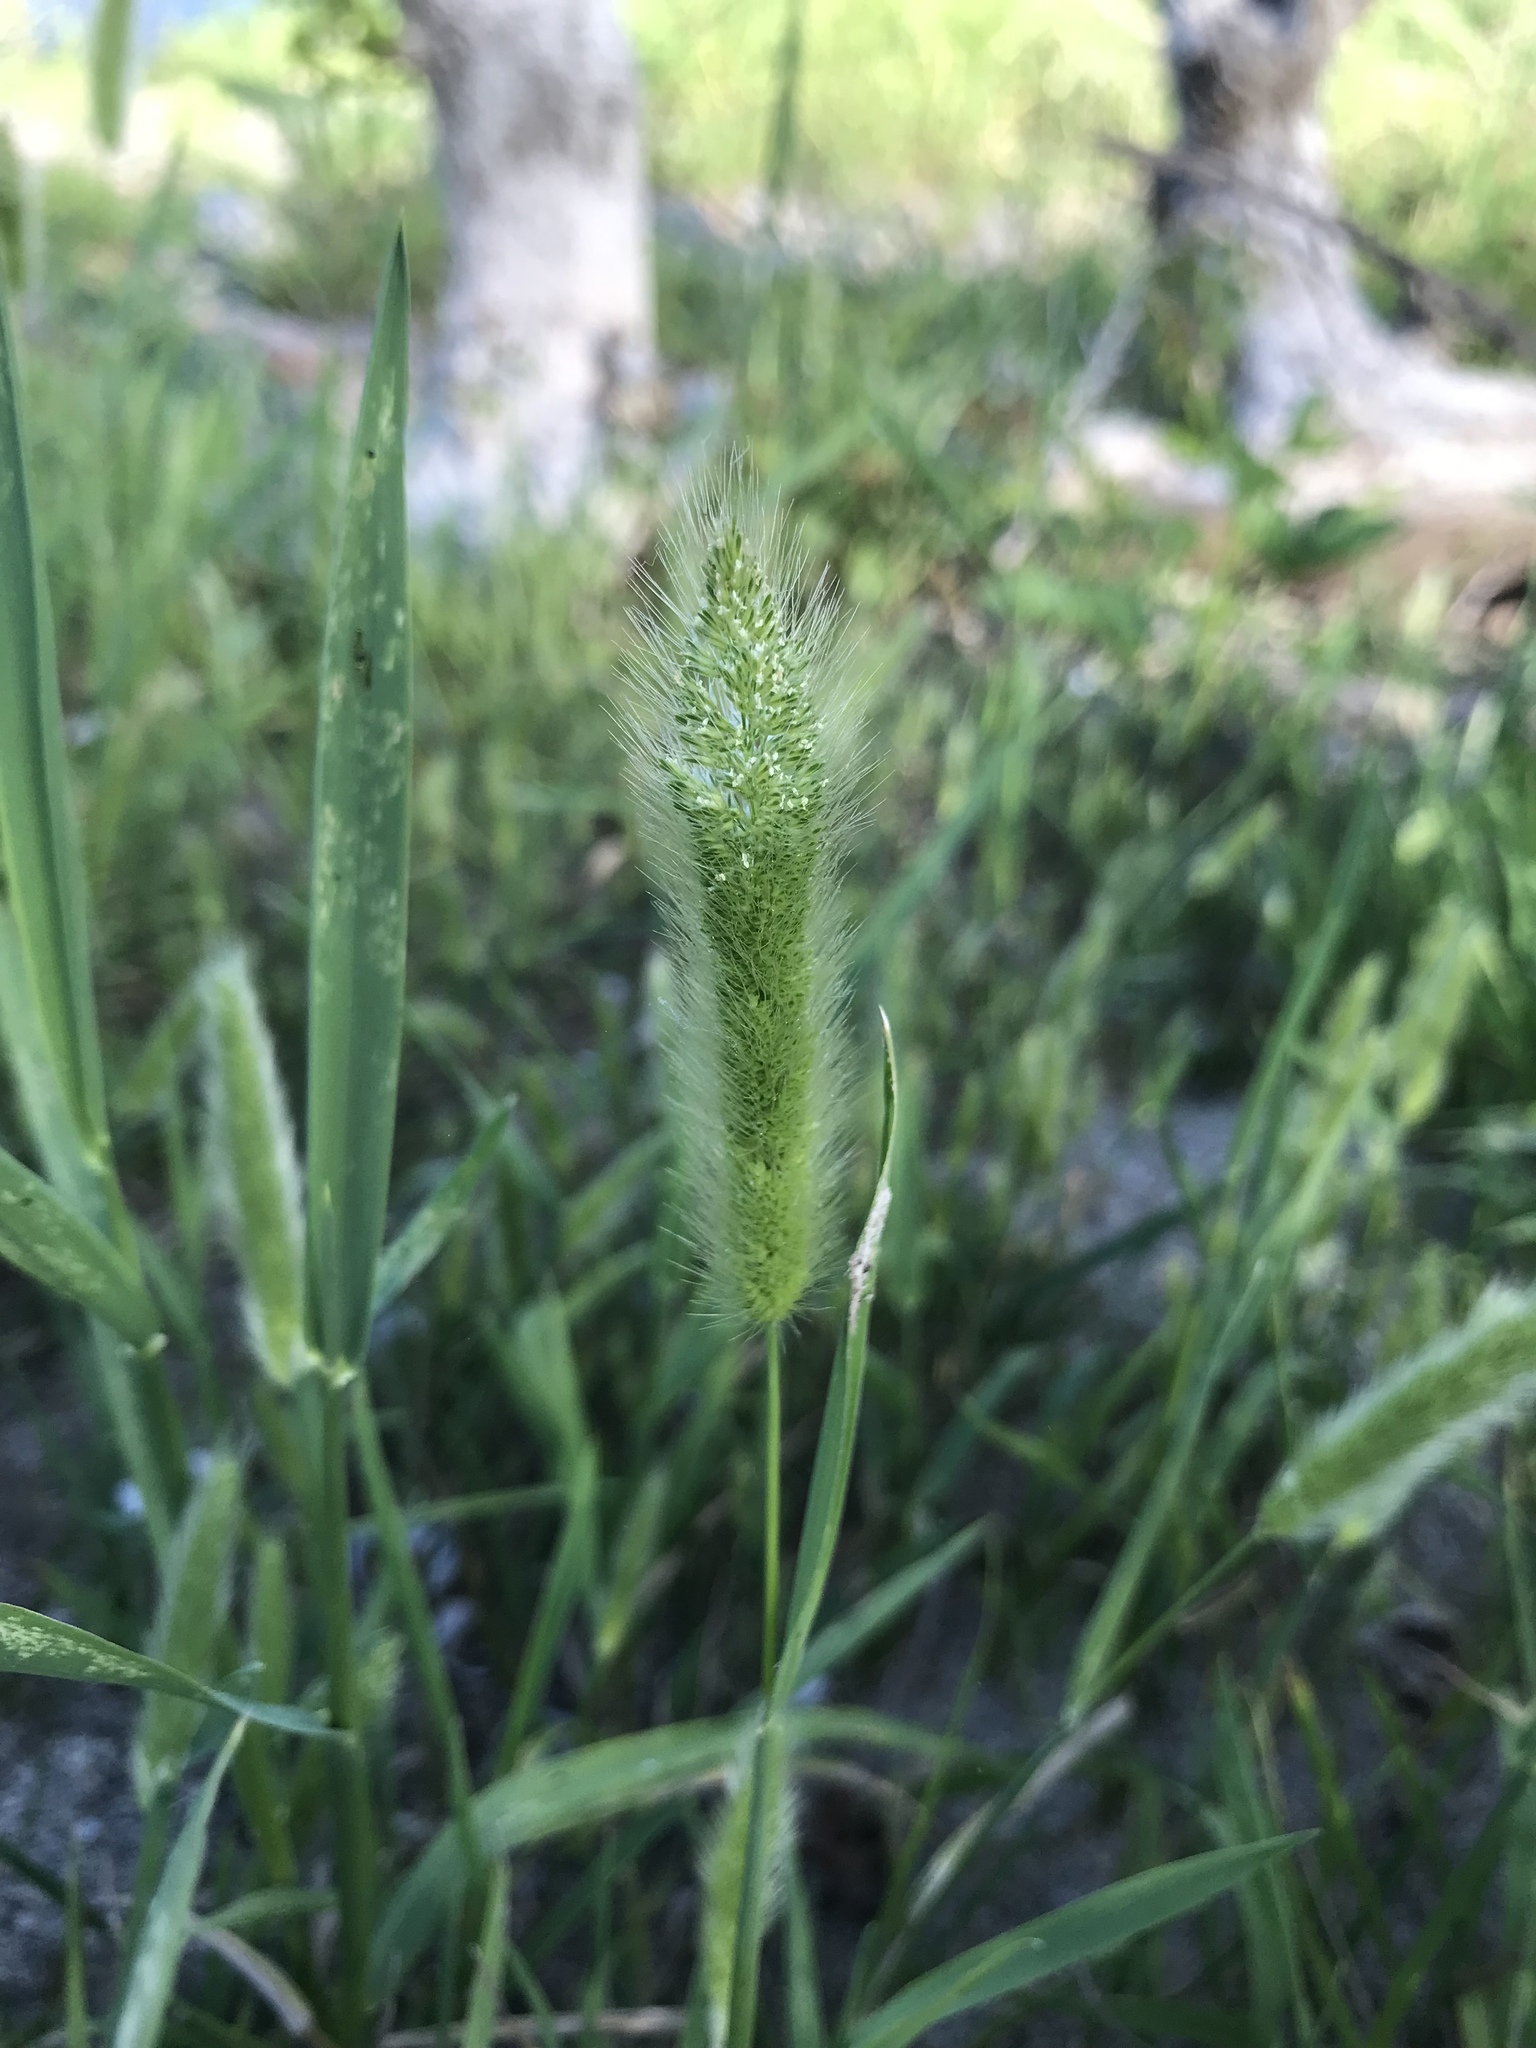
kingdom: Plantae
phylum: Tracheophyta
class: Liliopsida
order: Poales
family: Poaceae
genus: Polypogon
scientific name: Polypogon monspeliensis
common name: Annual rabbitsfoot grass
